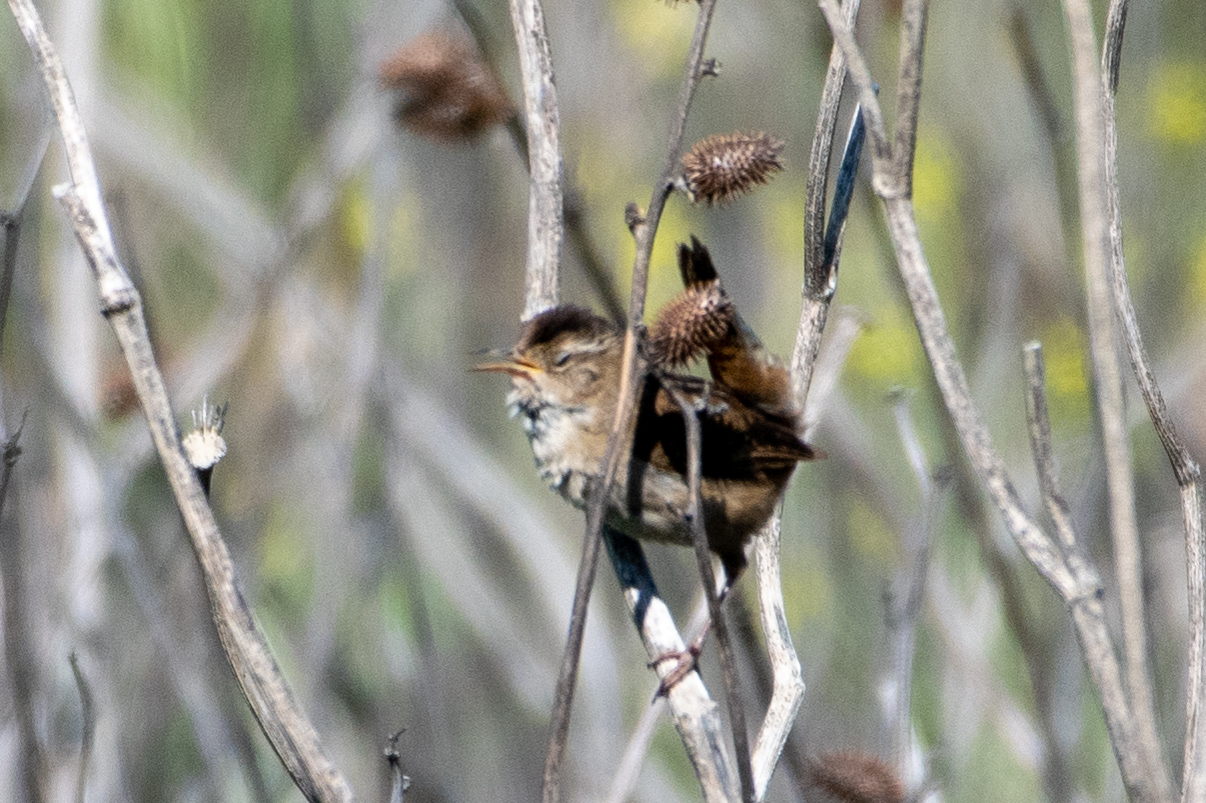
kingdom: Animalia
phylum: Chordata
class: Aves
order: Passeriformes
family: Troglodytidae
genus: Cistothorus
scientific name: Cistothorus palustris
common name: Marsh wren
